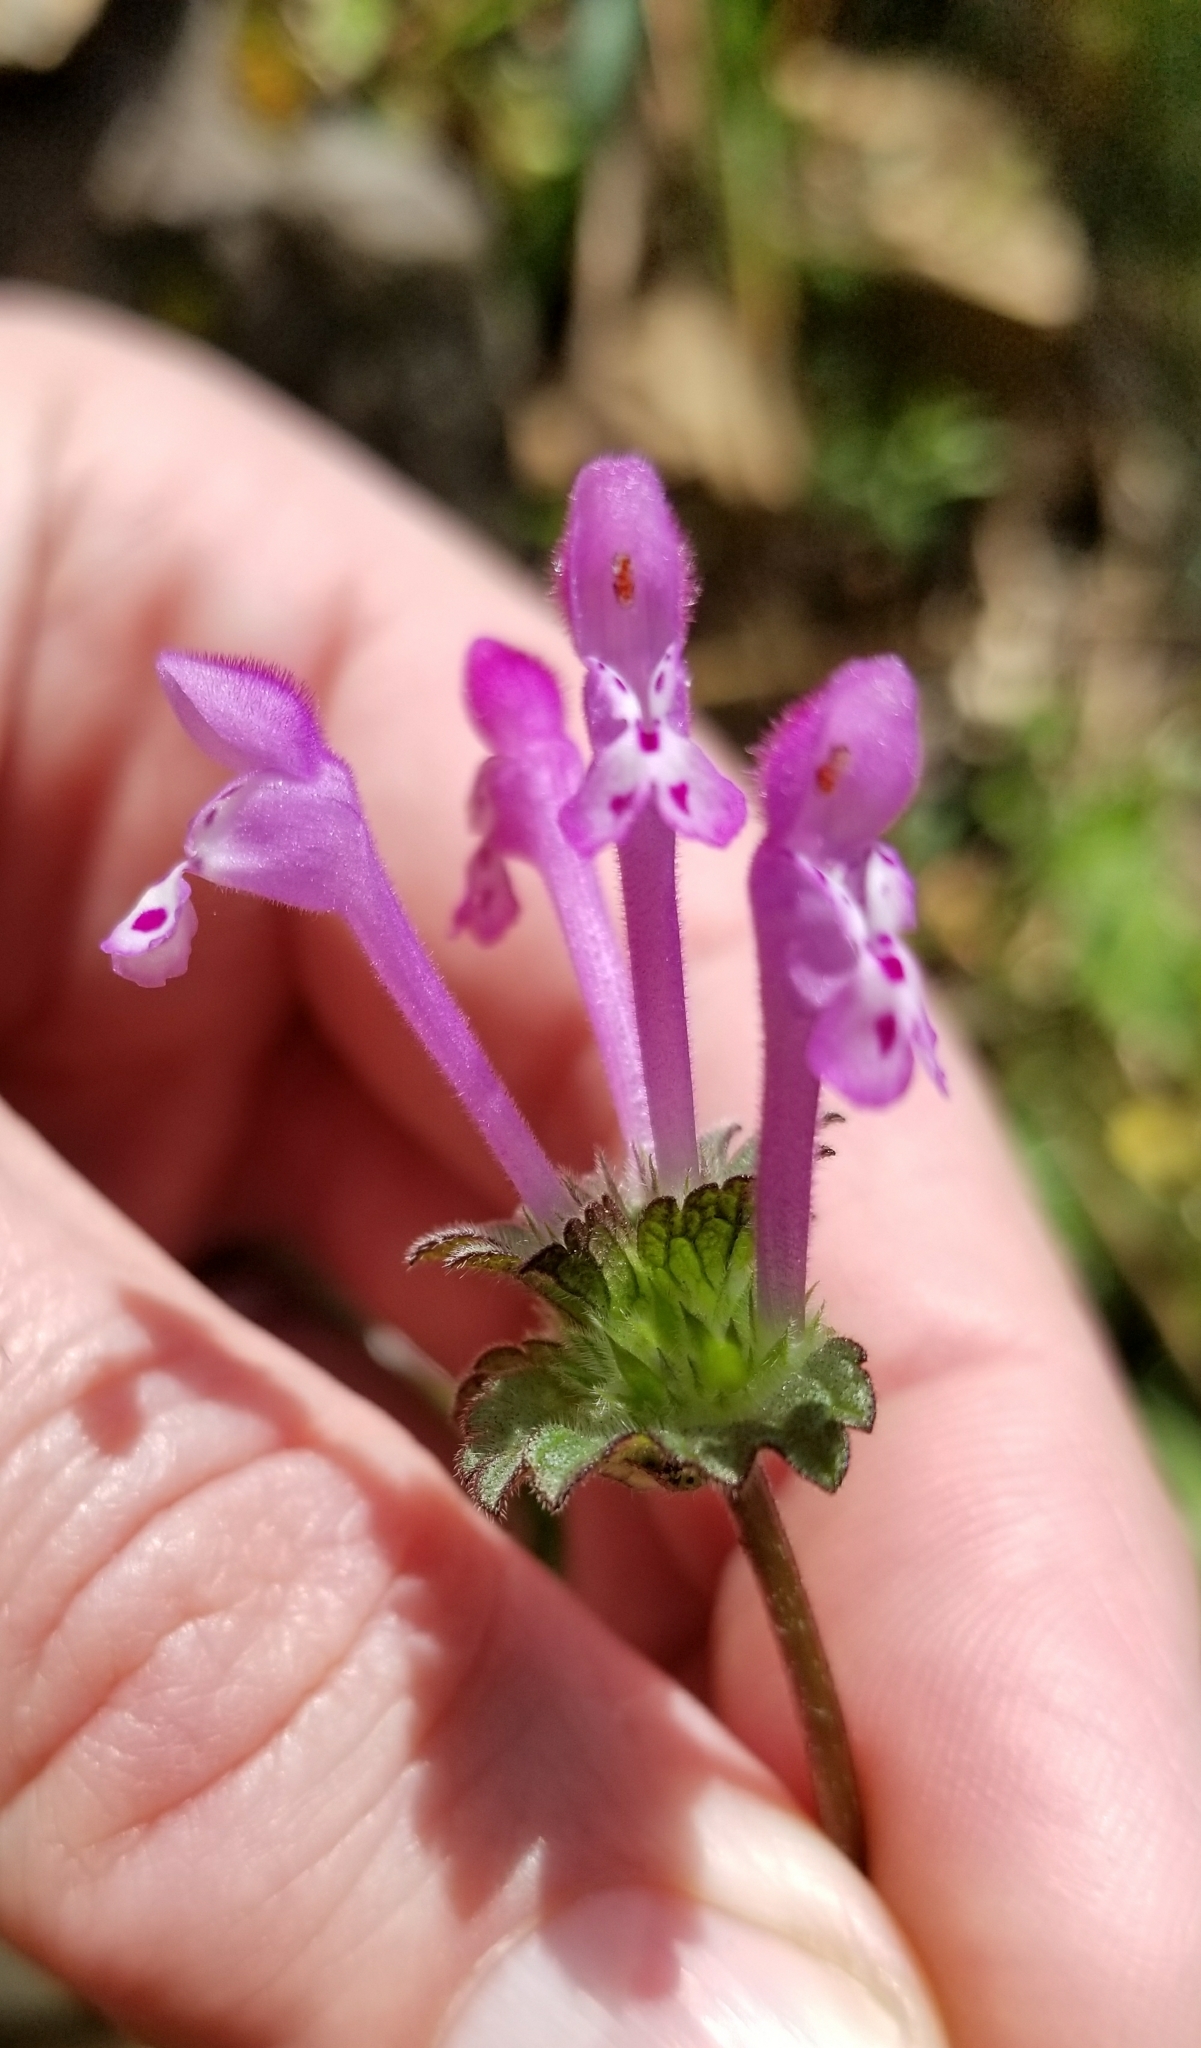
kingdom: Plantae
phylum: Tracheophyta
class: Magnoliopsida
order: Lamiales
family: Lamiaceae
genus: Lamium
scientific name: Lamium amplexicaule
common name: Henbit dead-nettle
